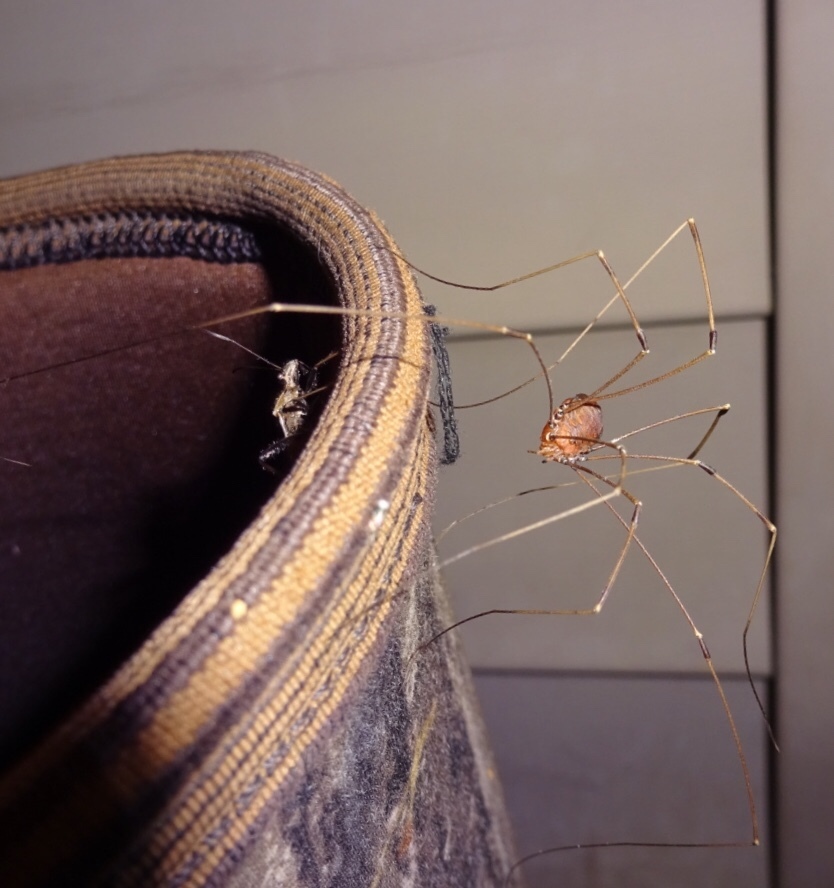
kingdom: Animalia
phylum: Arthropoda
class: Insecta
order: Hemiptera
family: Alydidae
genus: Alydus
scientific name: Alydus pilosulus
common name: Broad-headed bug
